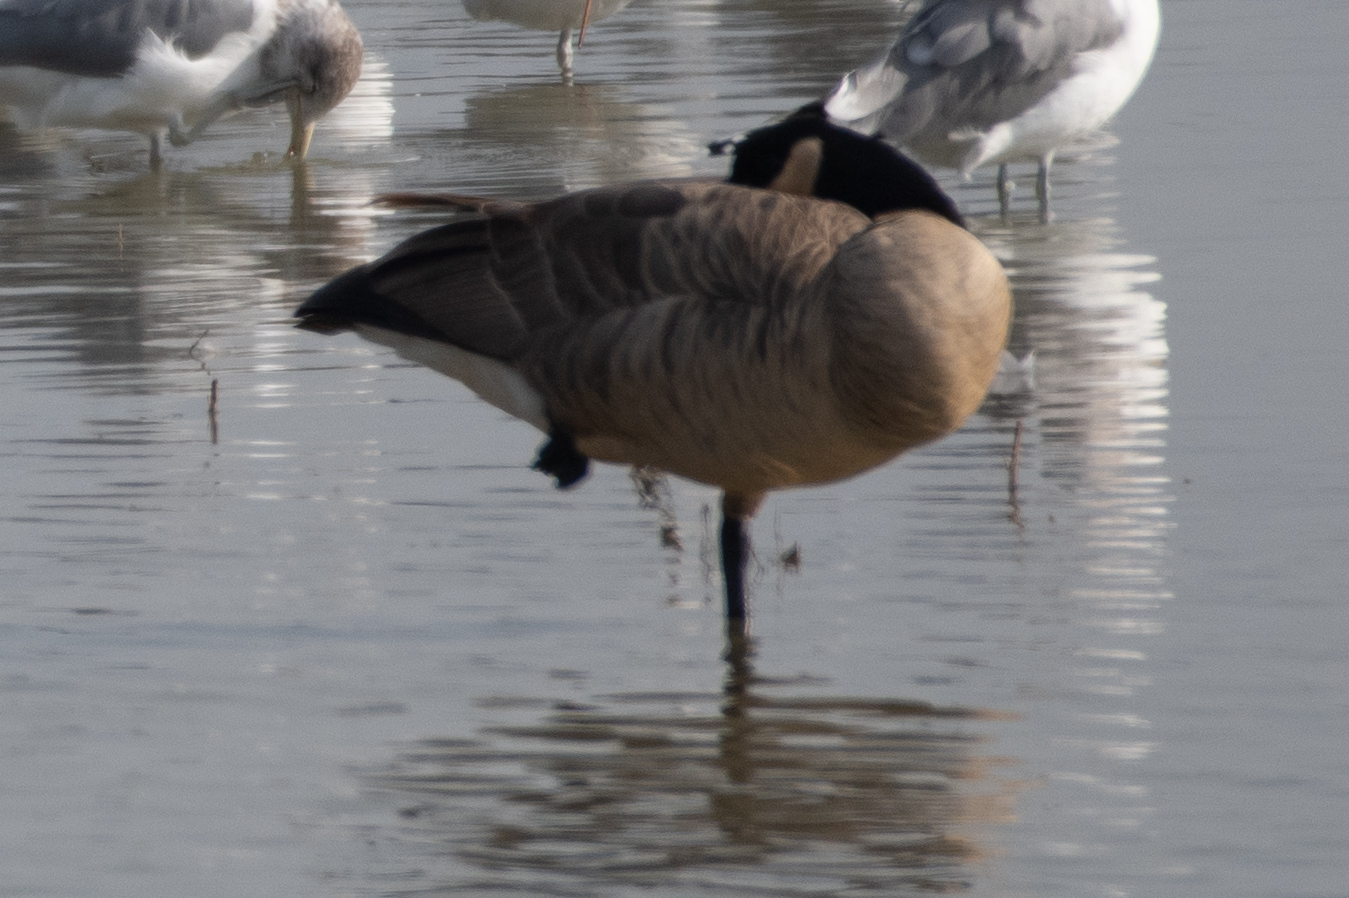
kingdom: Animalia
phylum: Chordata
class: Aves
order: Anseriformes
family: Anatidae
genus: Branta
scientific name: Branta canadensis
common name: Canada goose
